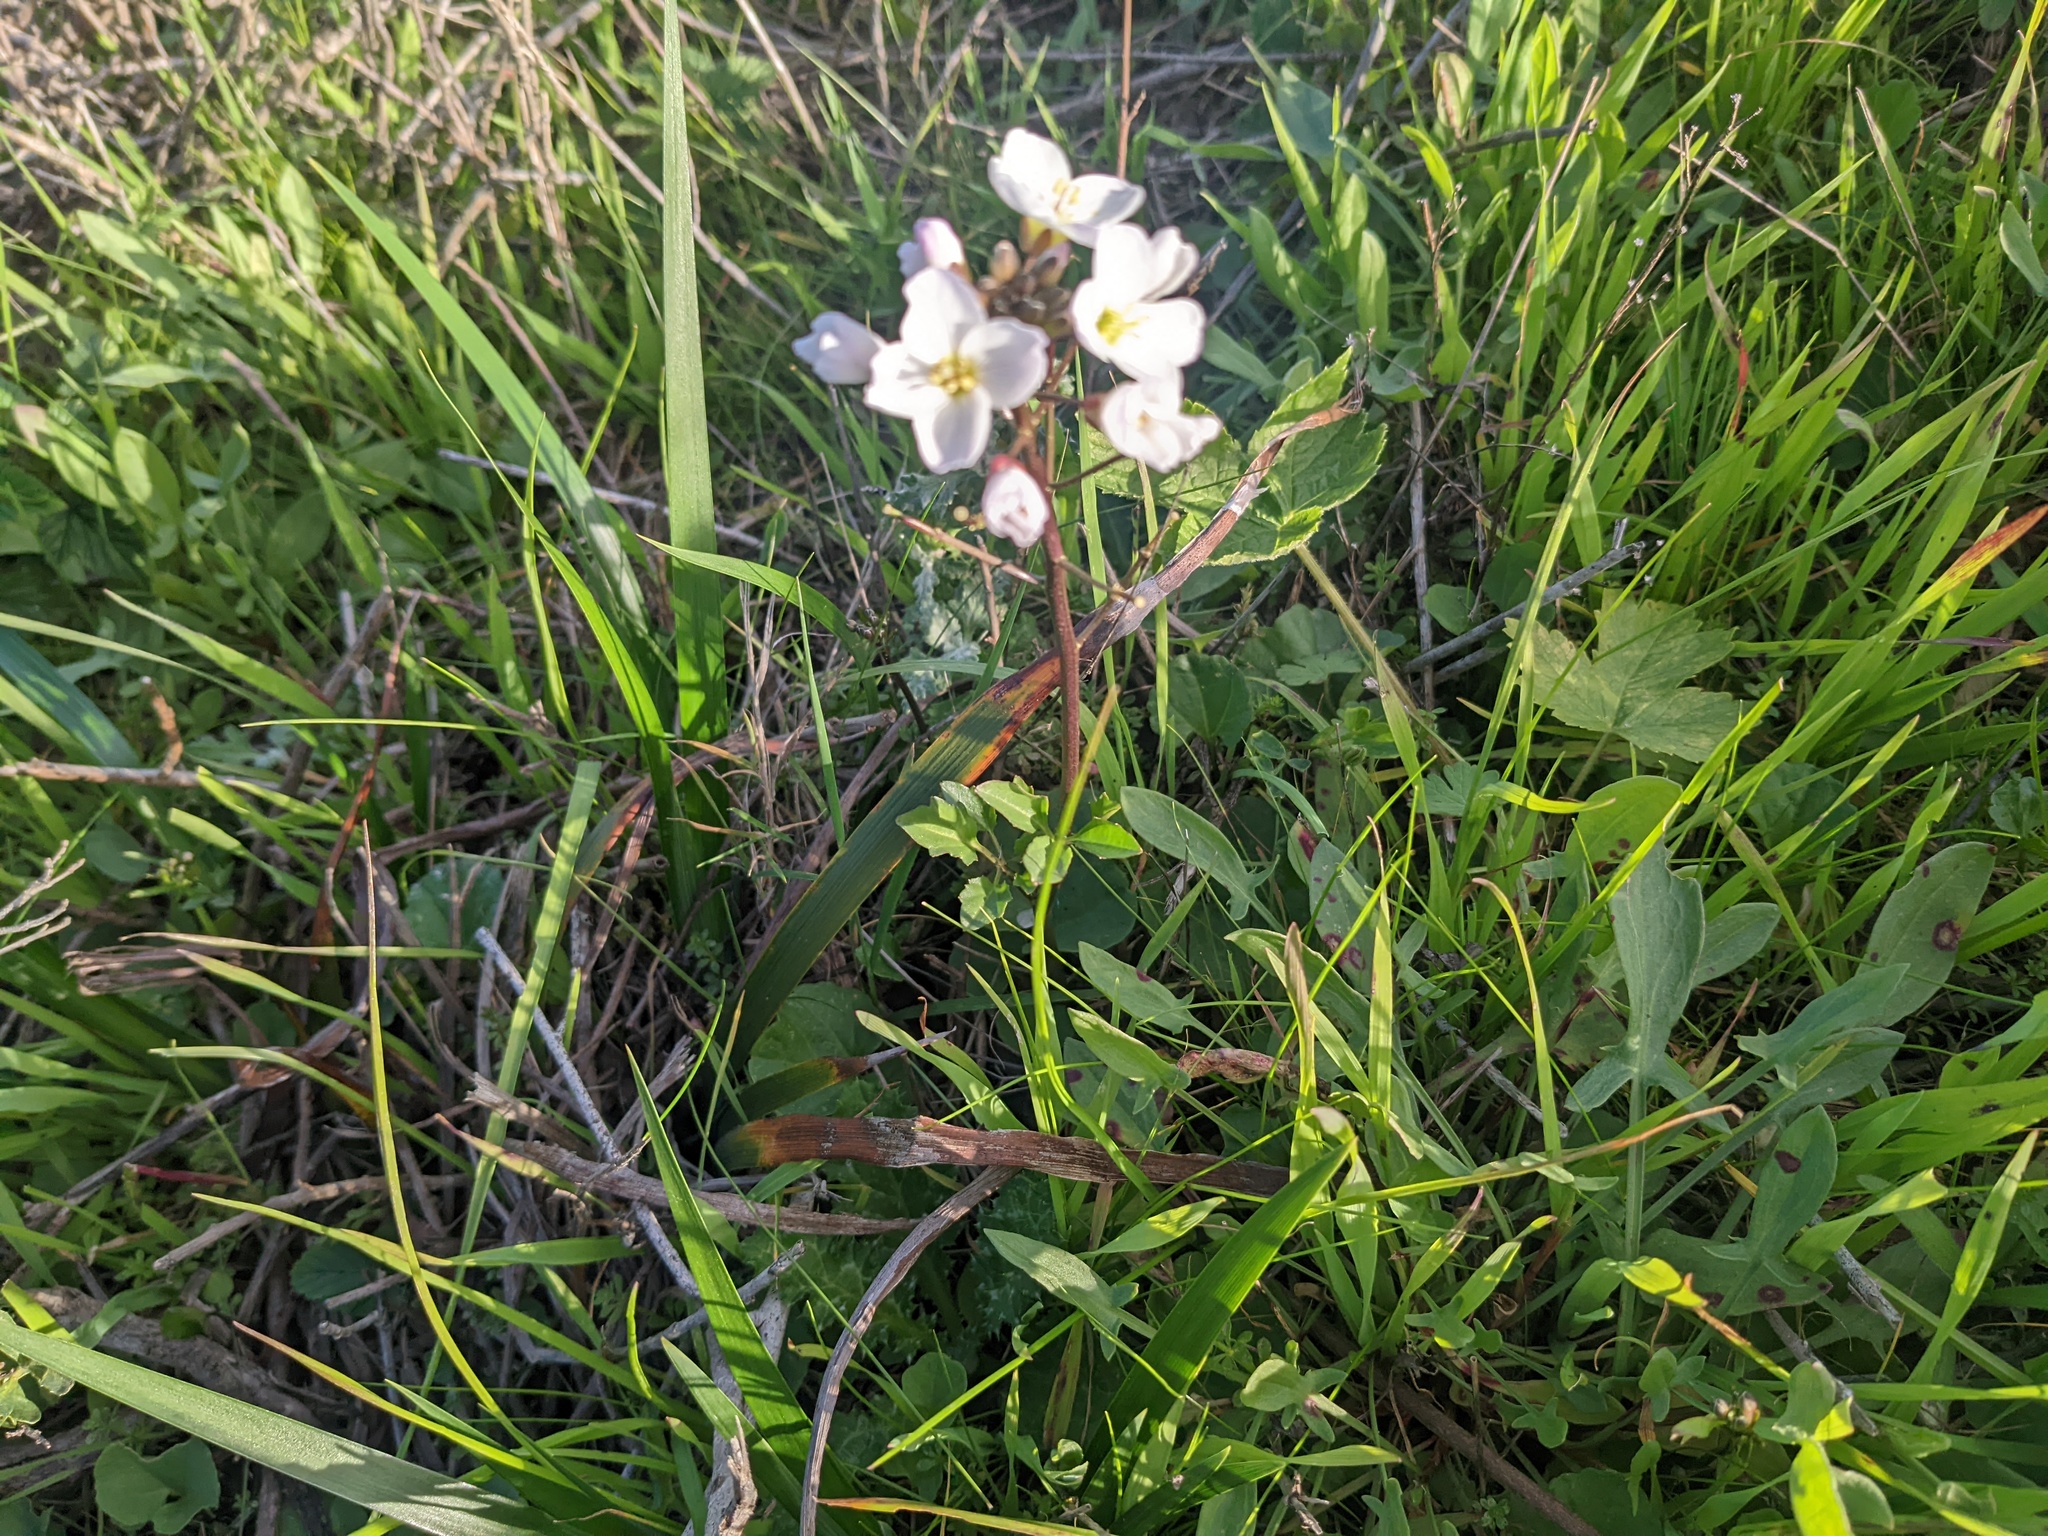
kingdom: Plantae
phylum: Tracheophyta
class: Magnoliopsida
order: Brassicales
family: Brassicaceae
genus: Cardamine
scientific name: Cardamine californica
